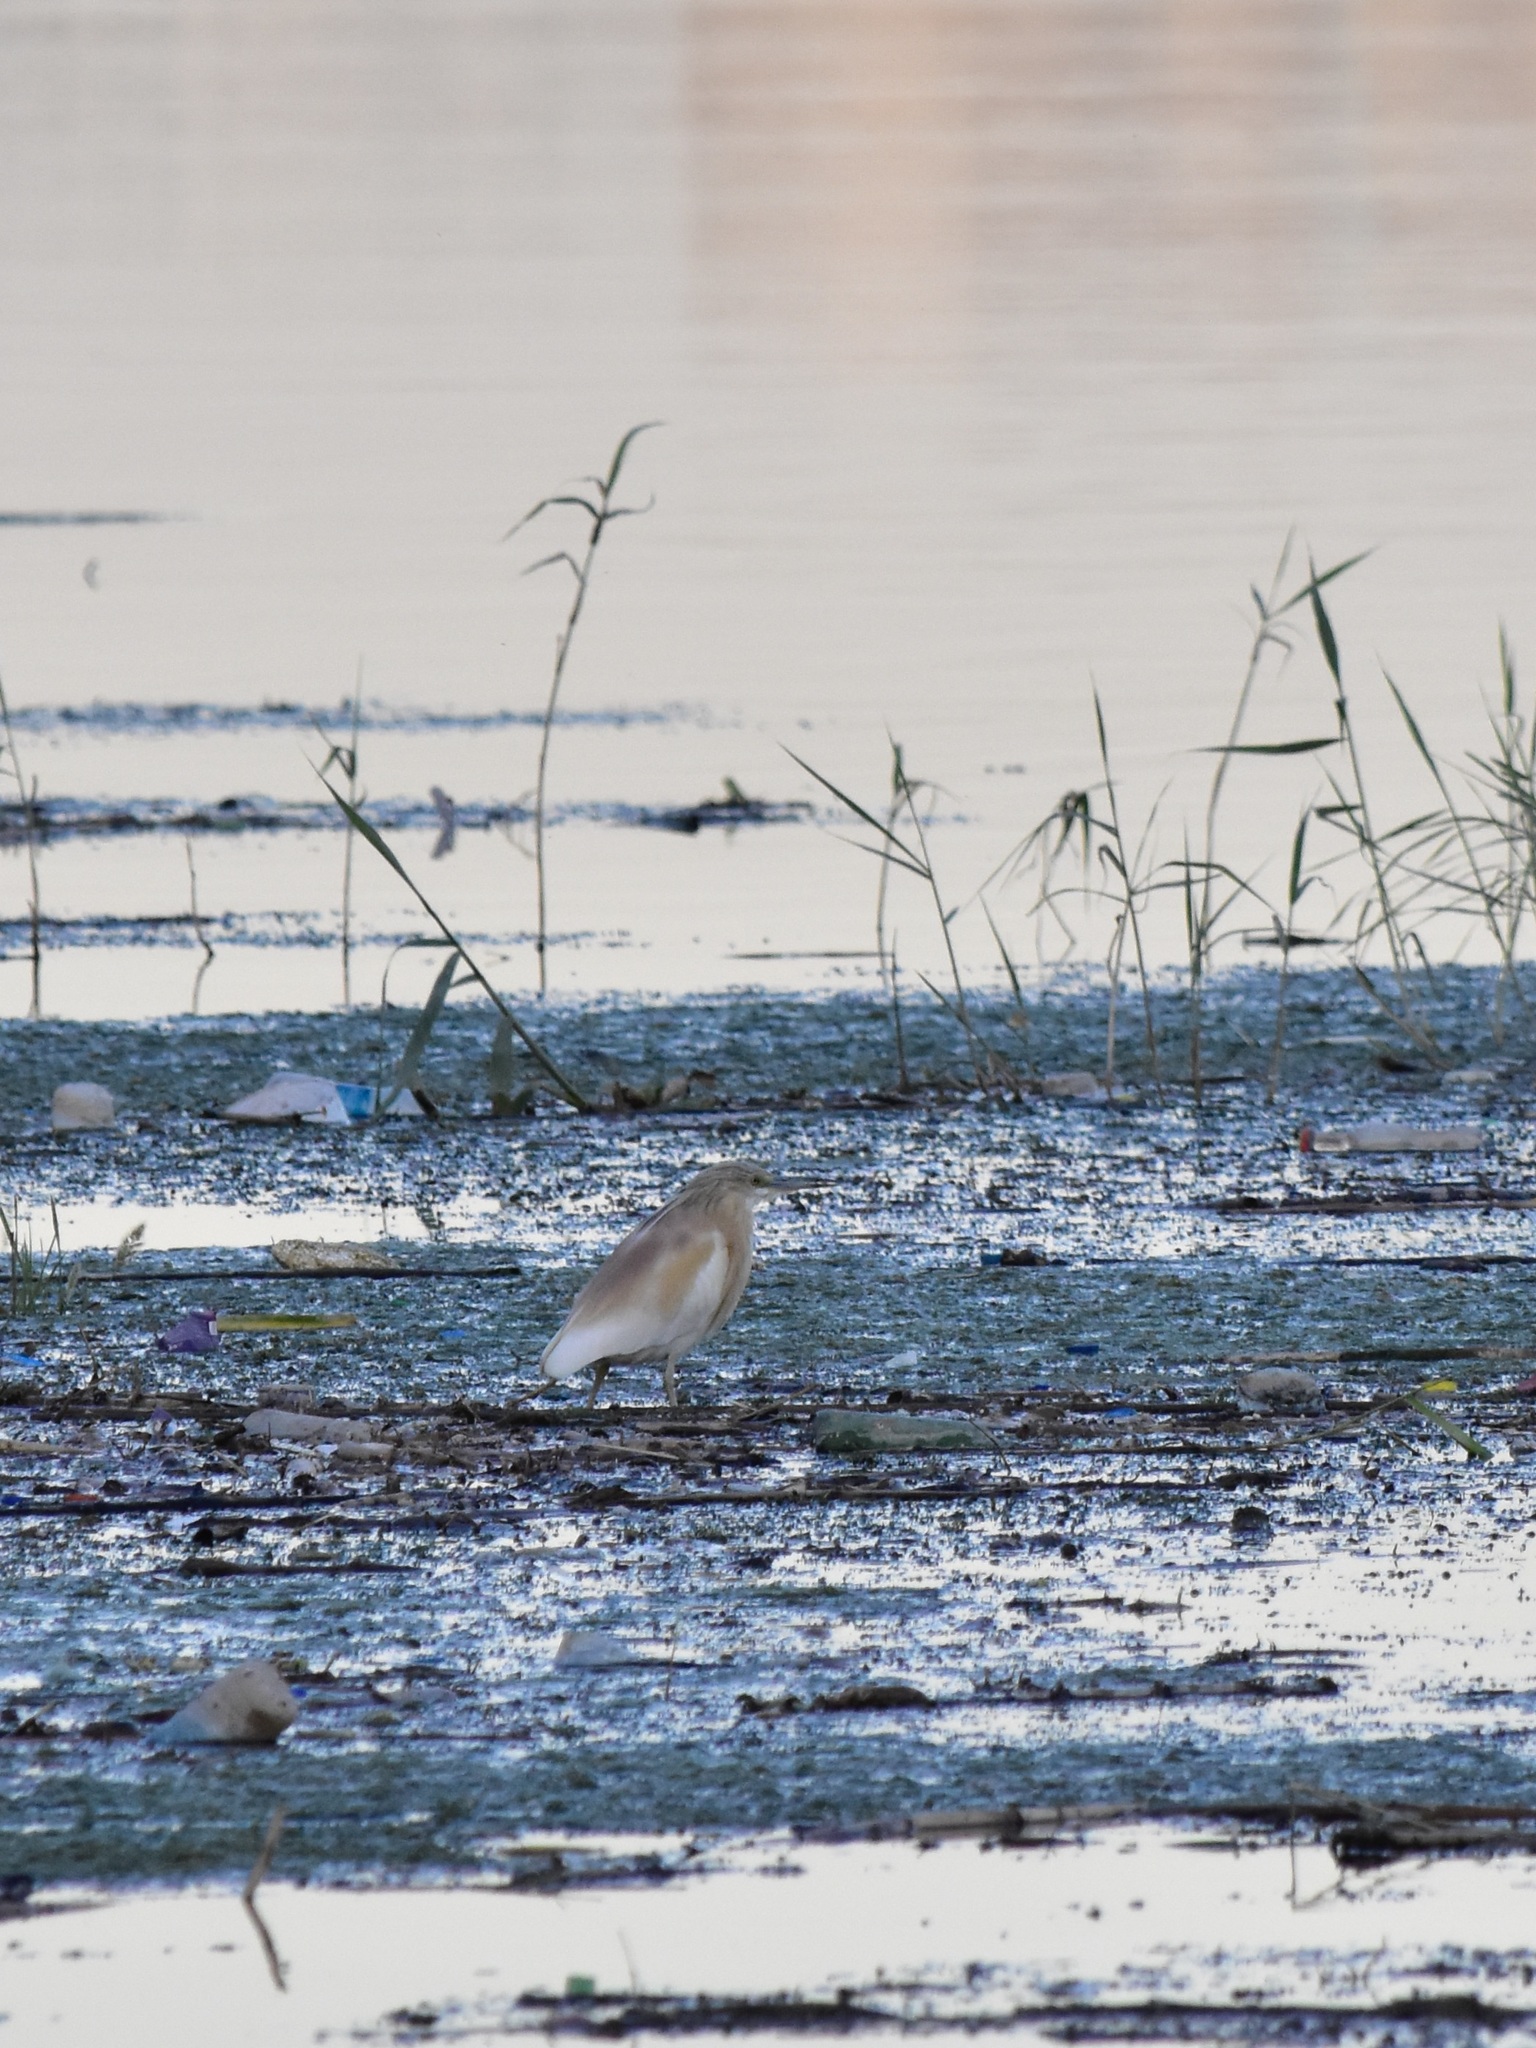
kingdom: Animalia
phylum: Chordata
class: Aves
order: Pelecaniformes
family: Ardeidae
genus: Ardeola
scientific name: Ardeola ralloides
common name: Squacco heron
